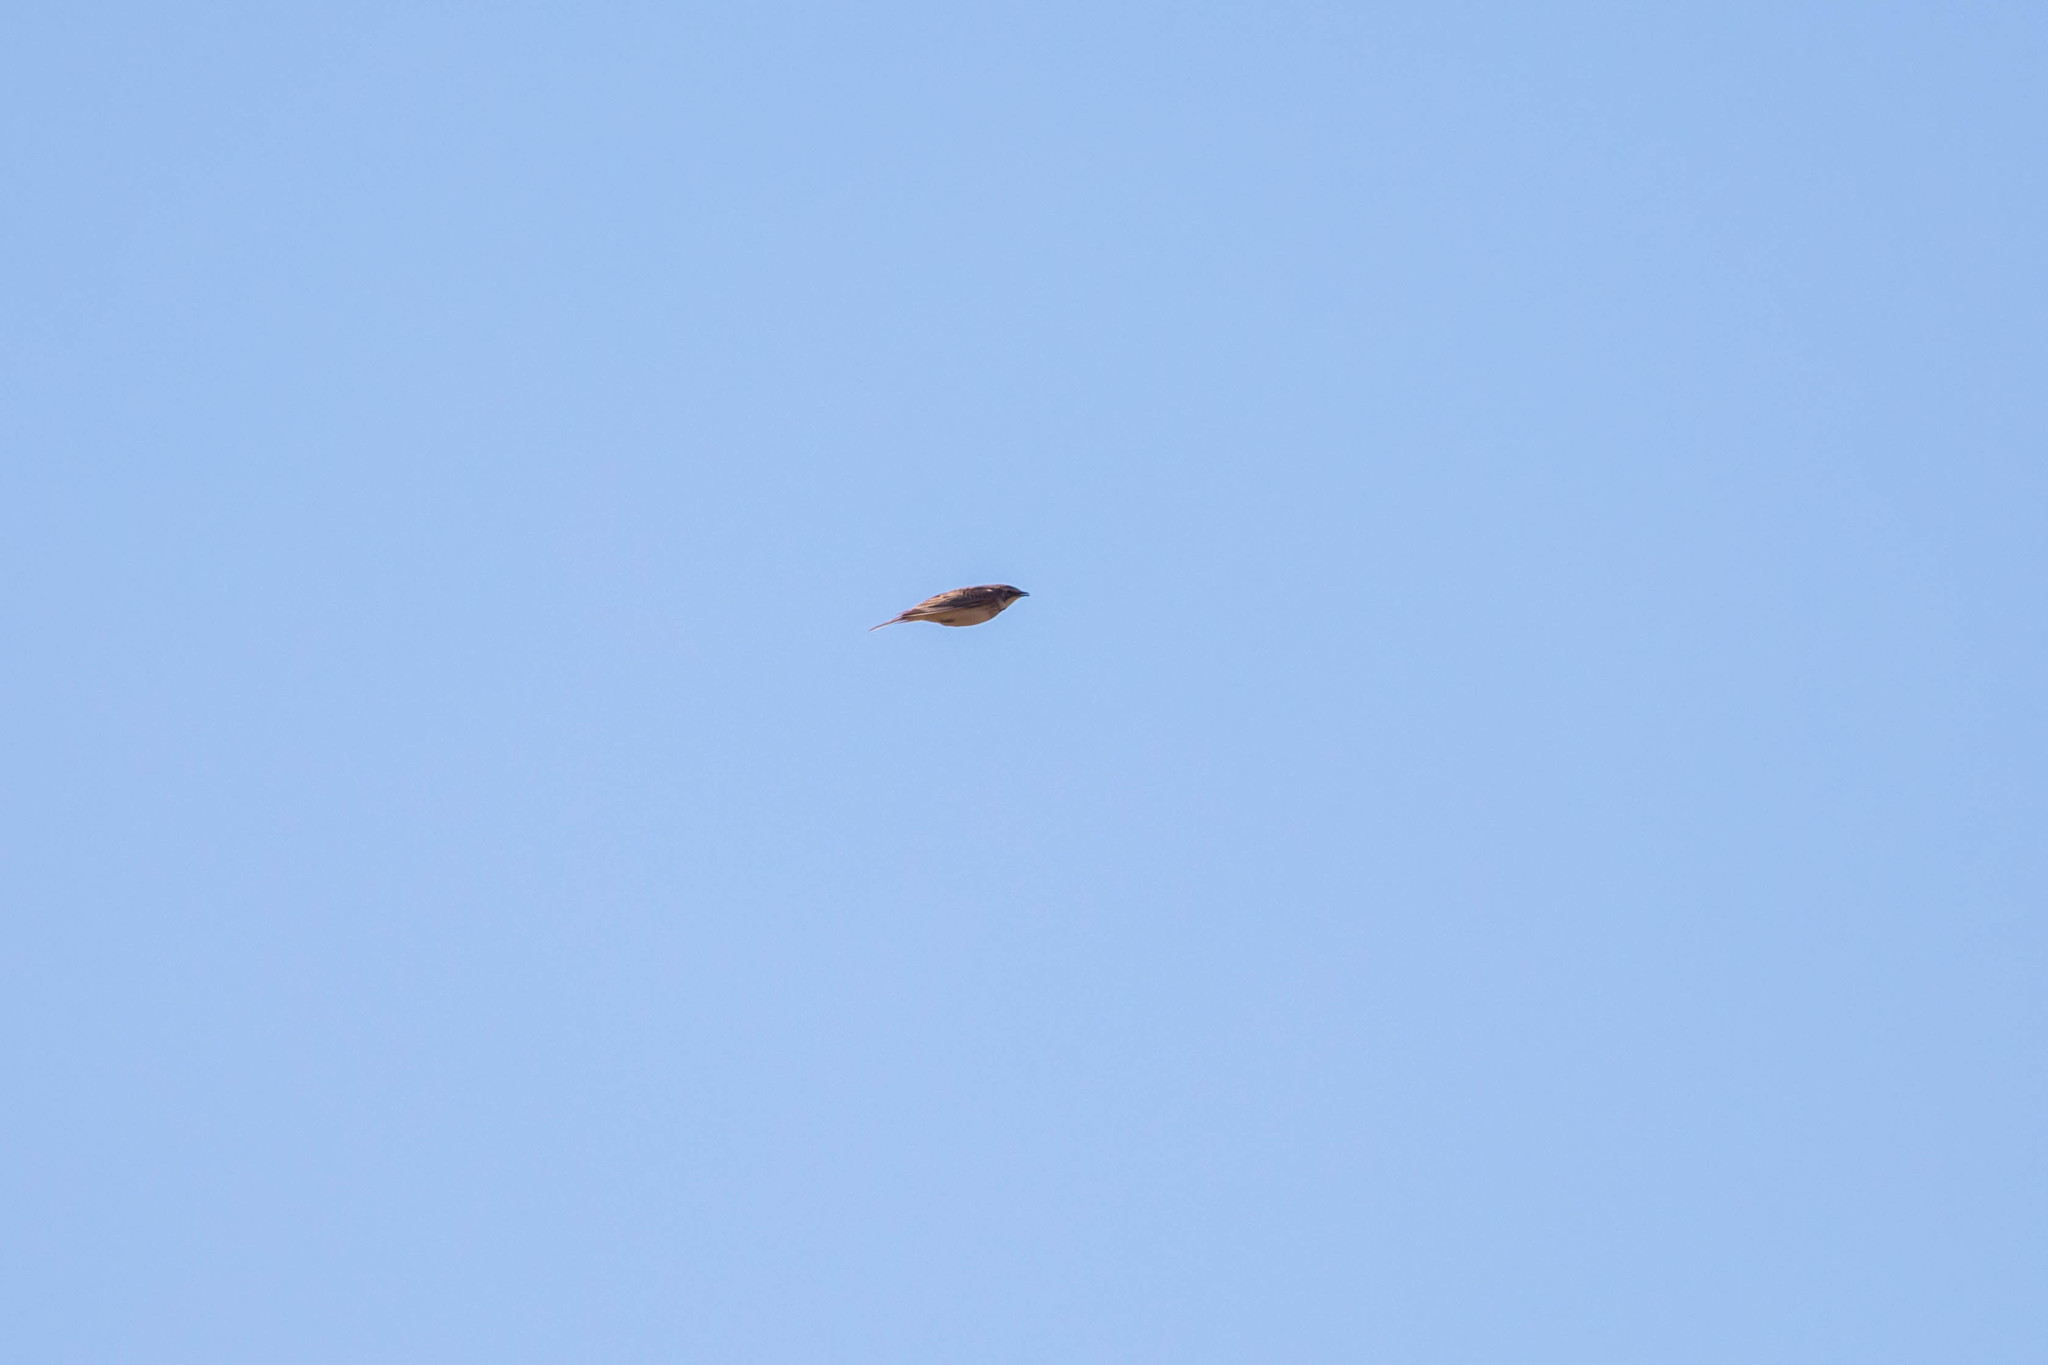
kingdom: Animalia
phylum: Chordata
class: Aves
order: Passeriformes
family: Alaudidae
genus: Eremophila
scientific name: Eremophila alpestris
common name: Horned lark
